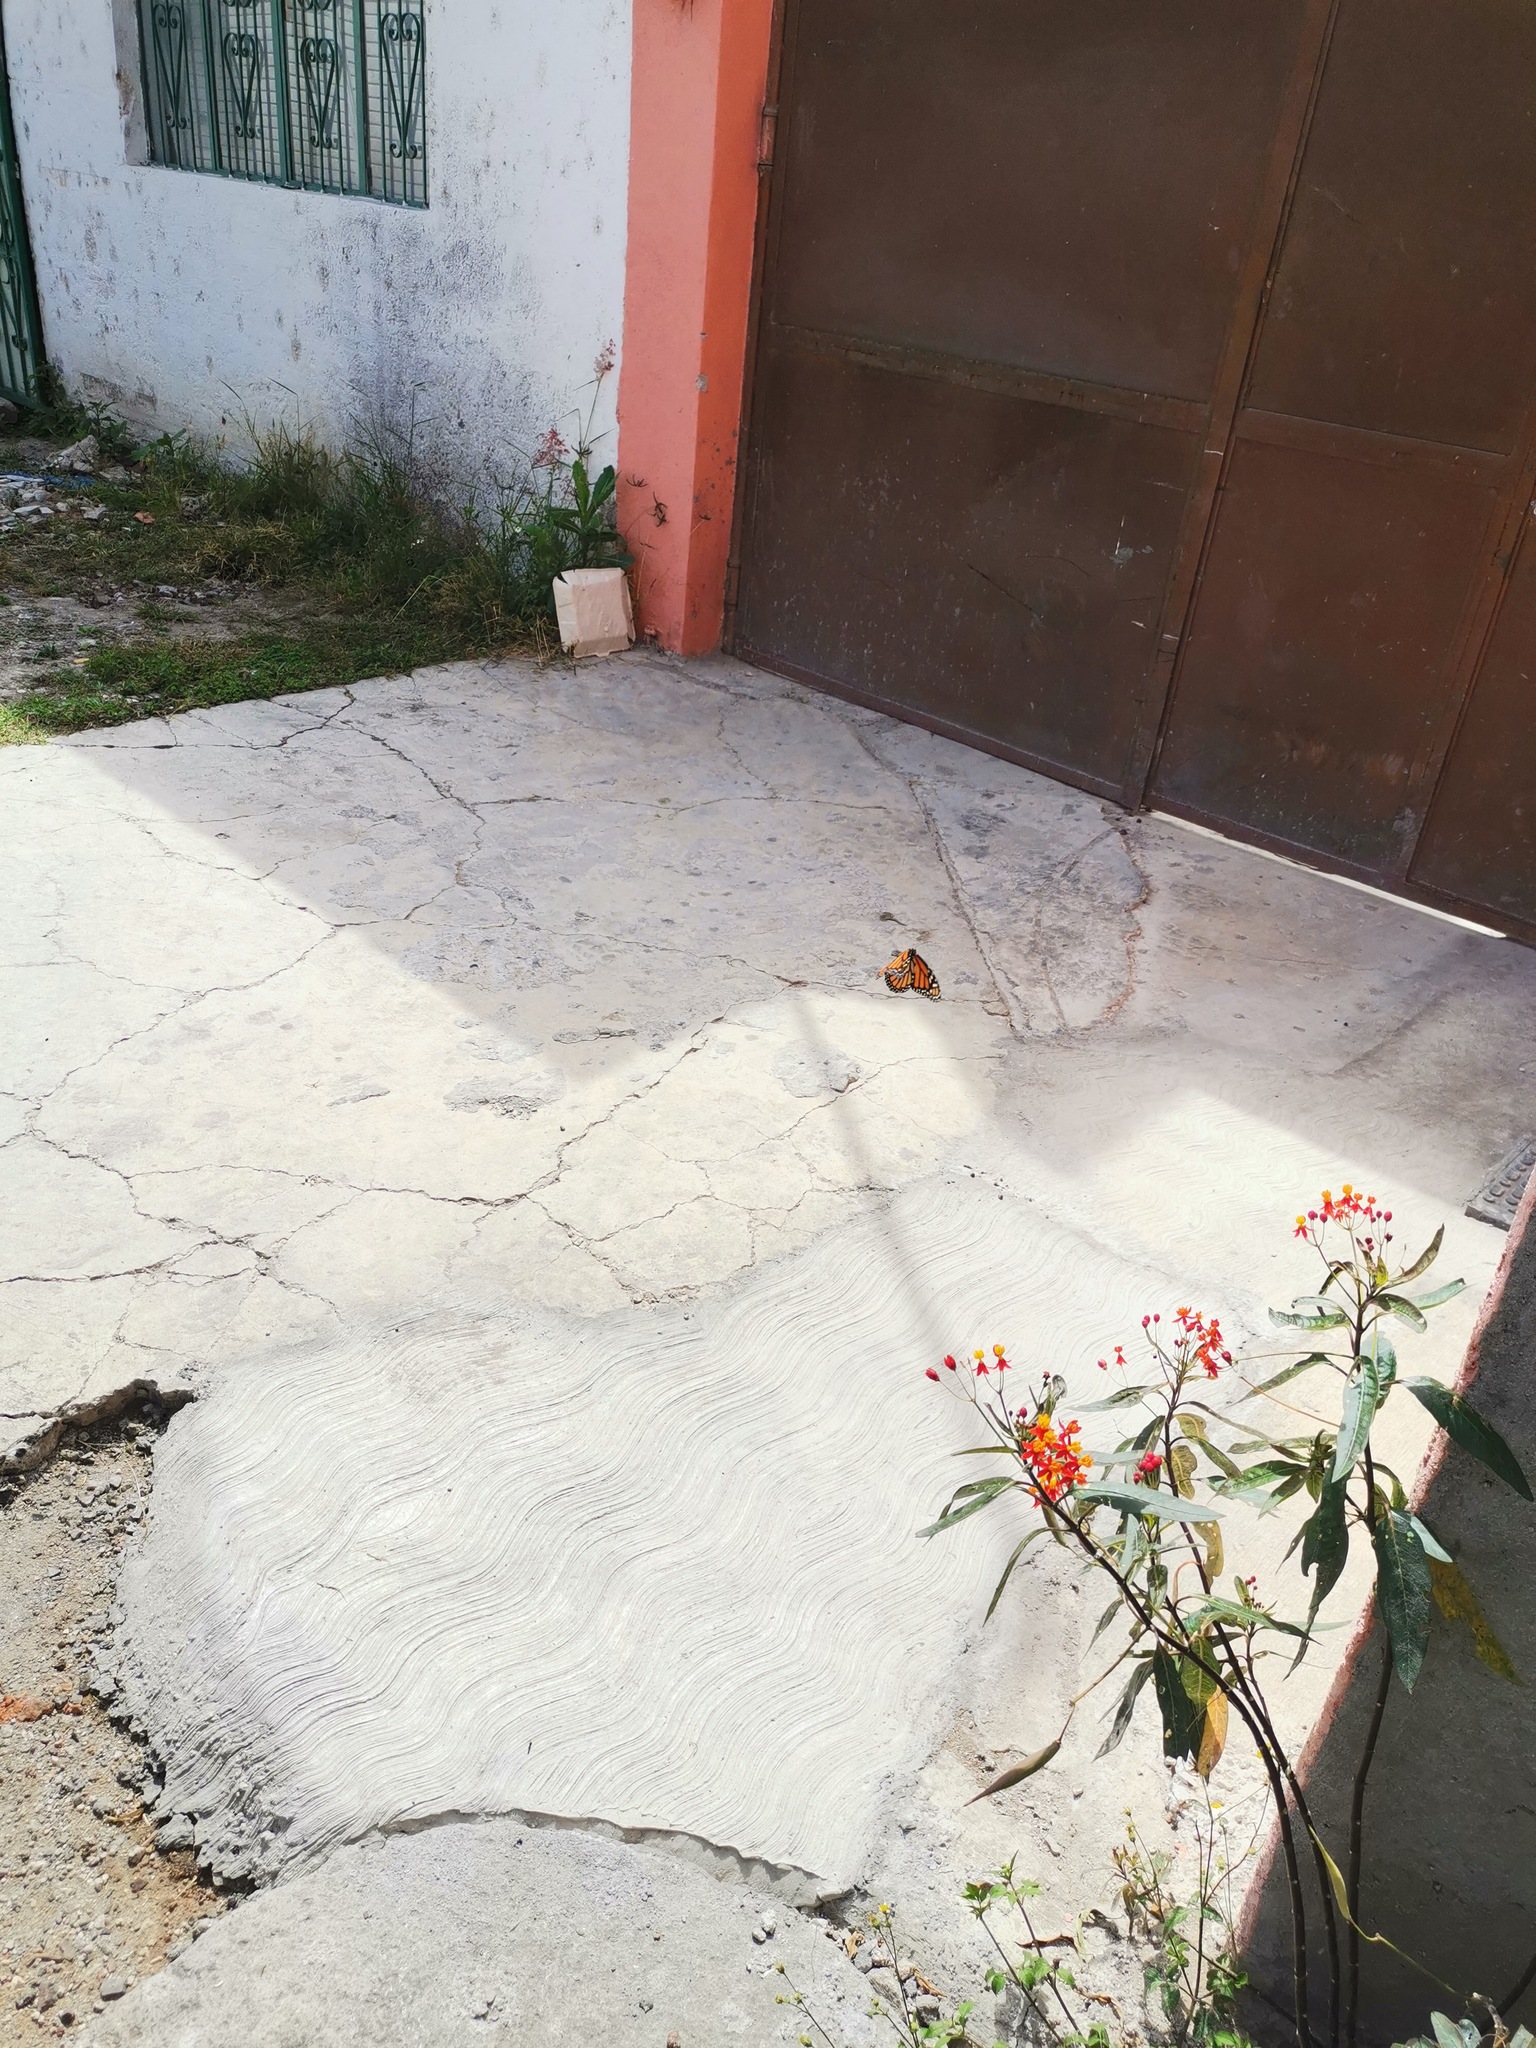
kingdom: Animalia
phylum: Arthropoda
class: Insecta
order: Lepidoptera
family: Nymphalidae
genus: Danaus
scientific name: Danaus plexippus
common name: Monarch
